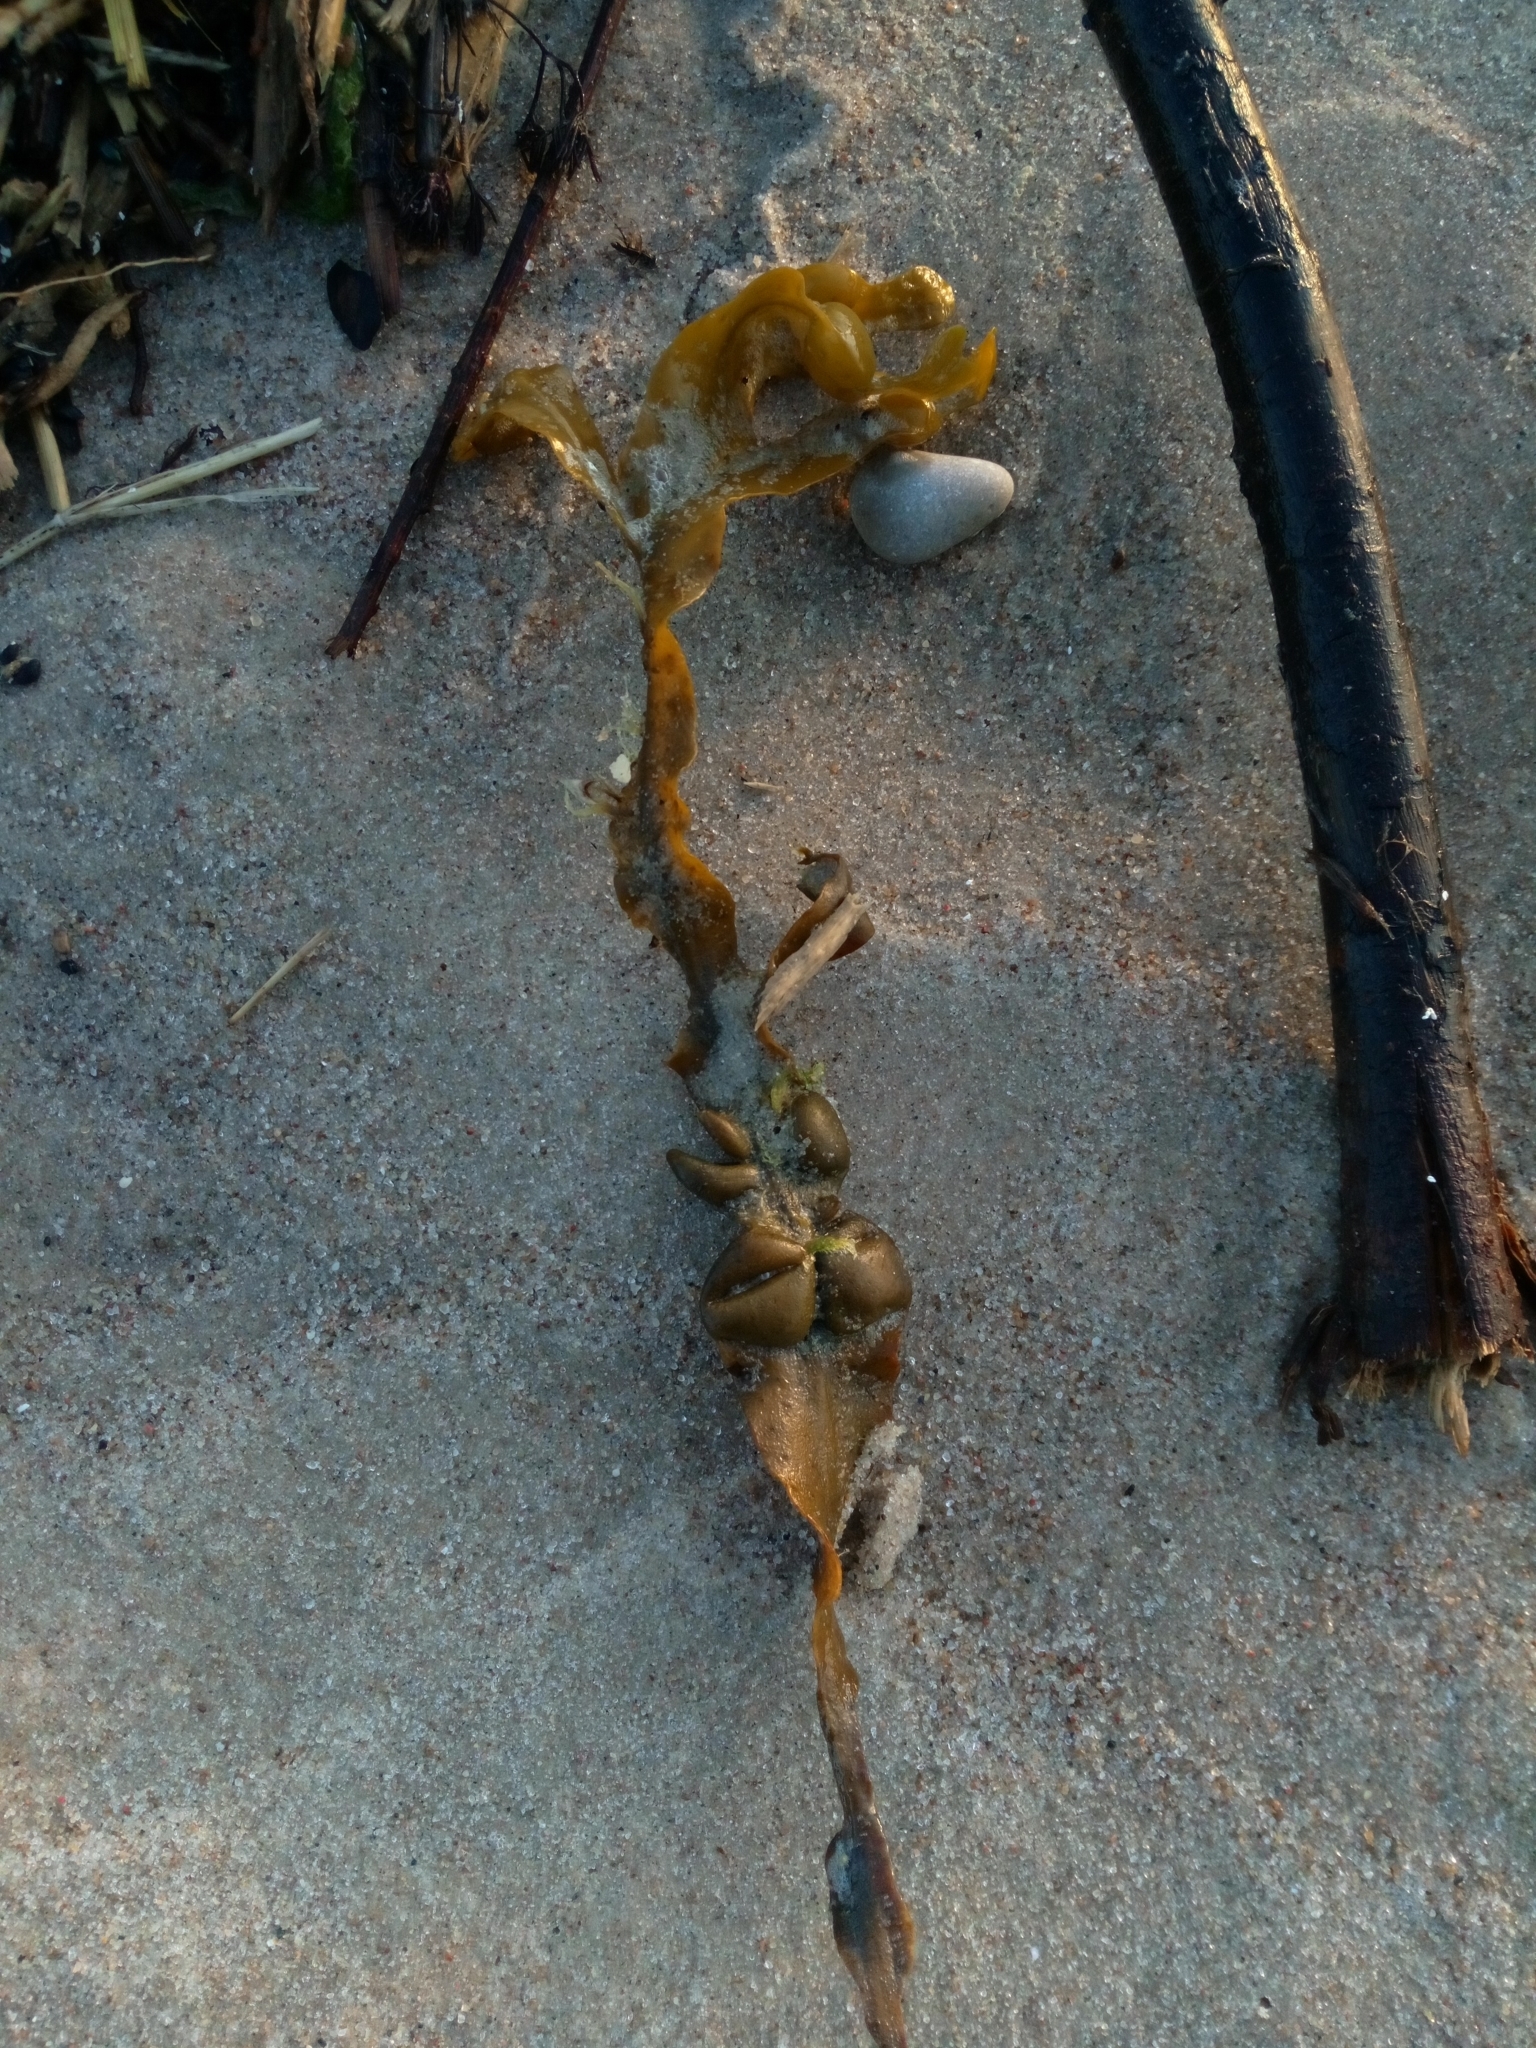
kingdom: Chromista
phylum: Ochrophyta
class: Phaeophyceae
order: Fucales
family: Fucaceae
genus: Fucus
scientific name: Fucus vesiculosus
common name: Bladder wrack
